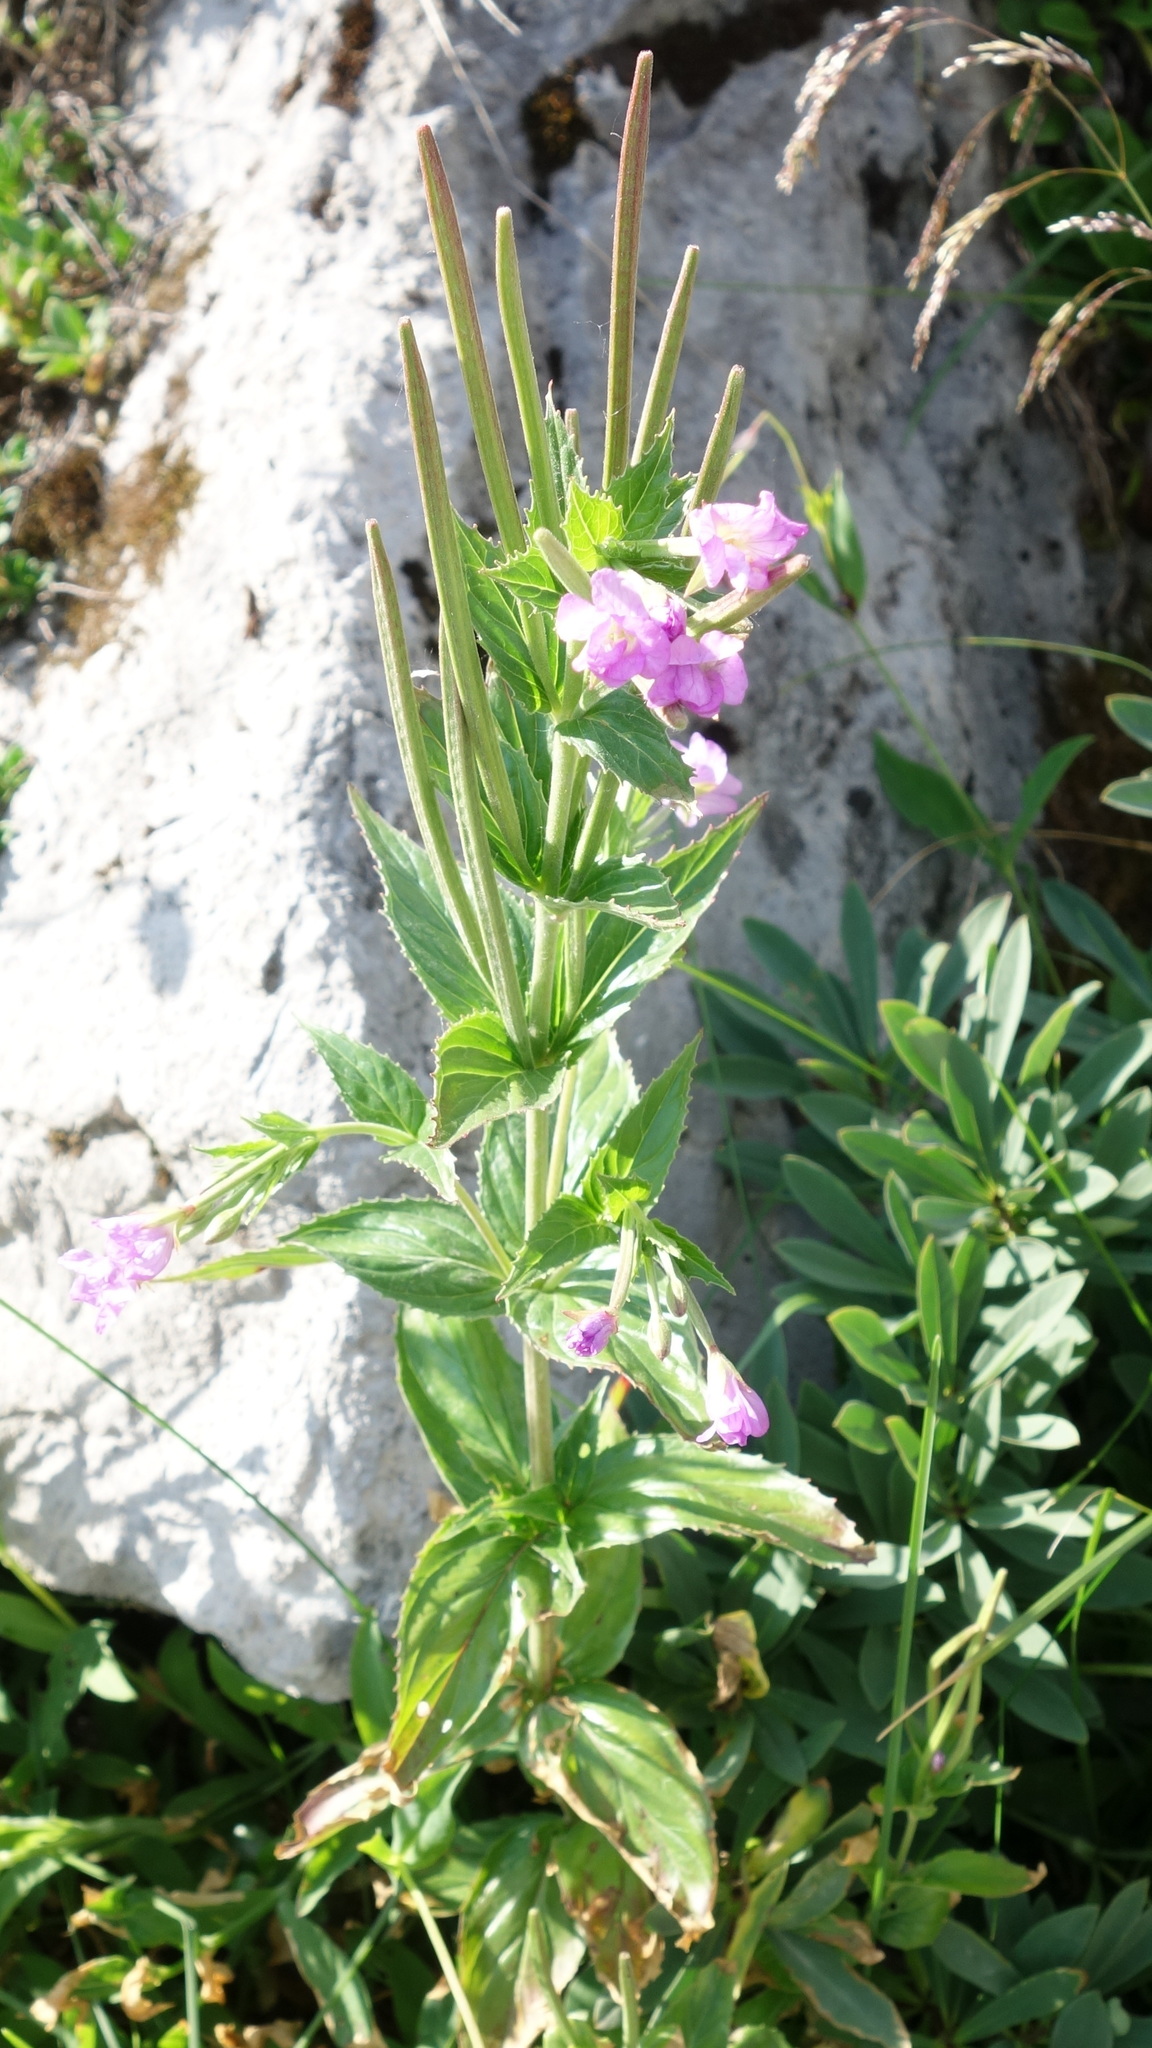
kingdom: Plantae
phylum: Tracheophyta
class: Magnoliopsida
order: Myrtales
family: Onagraceae
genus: Epilobium
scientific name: Epilobium alpestre
